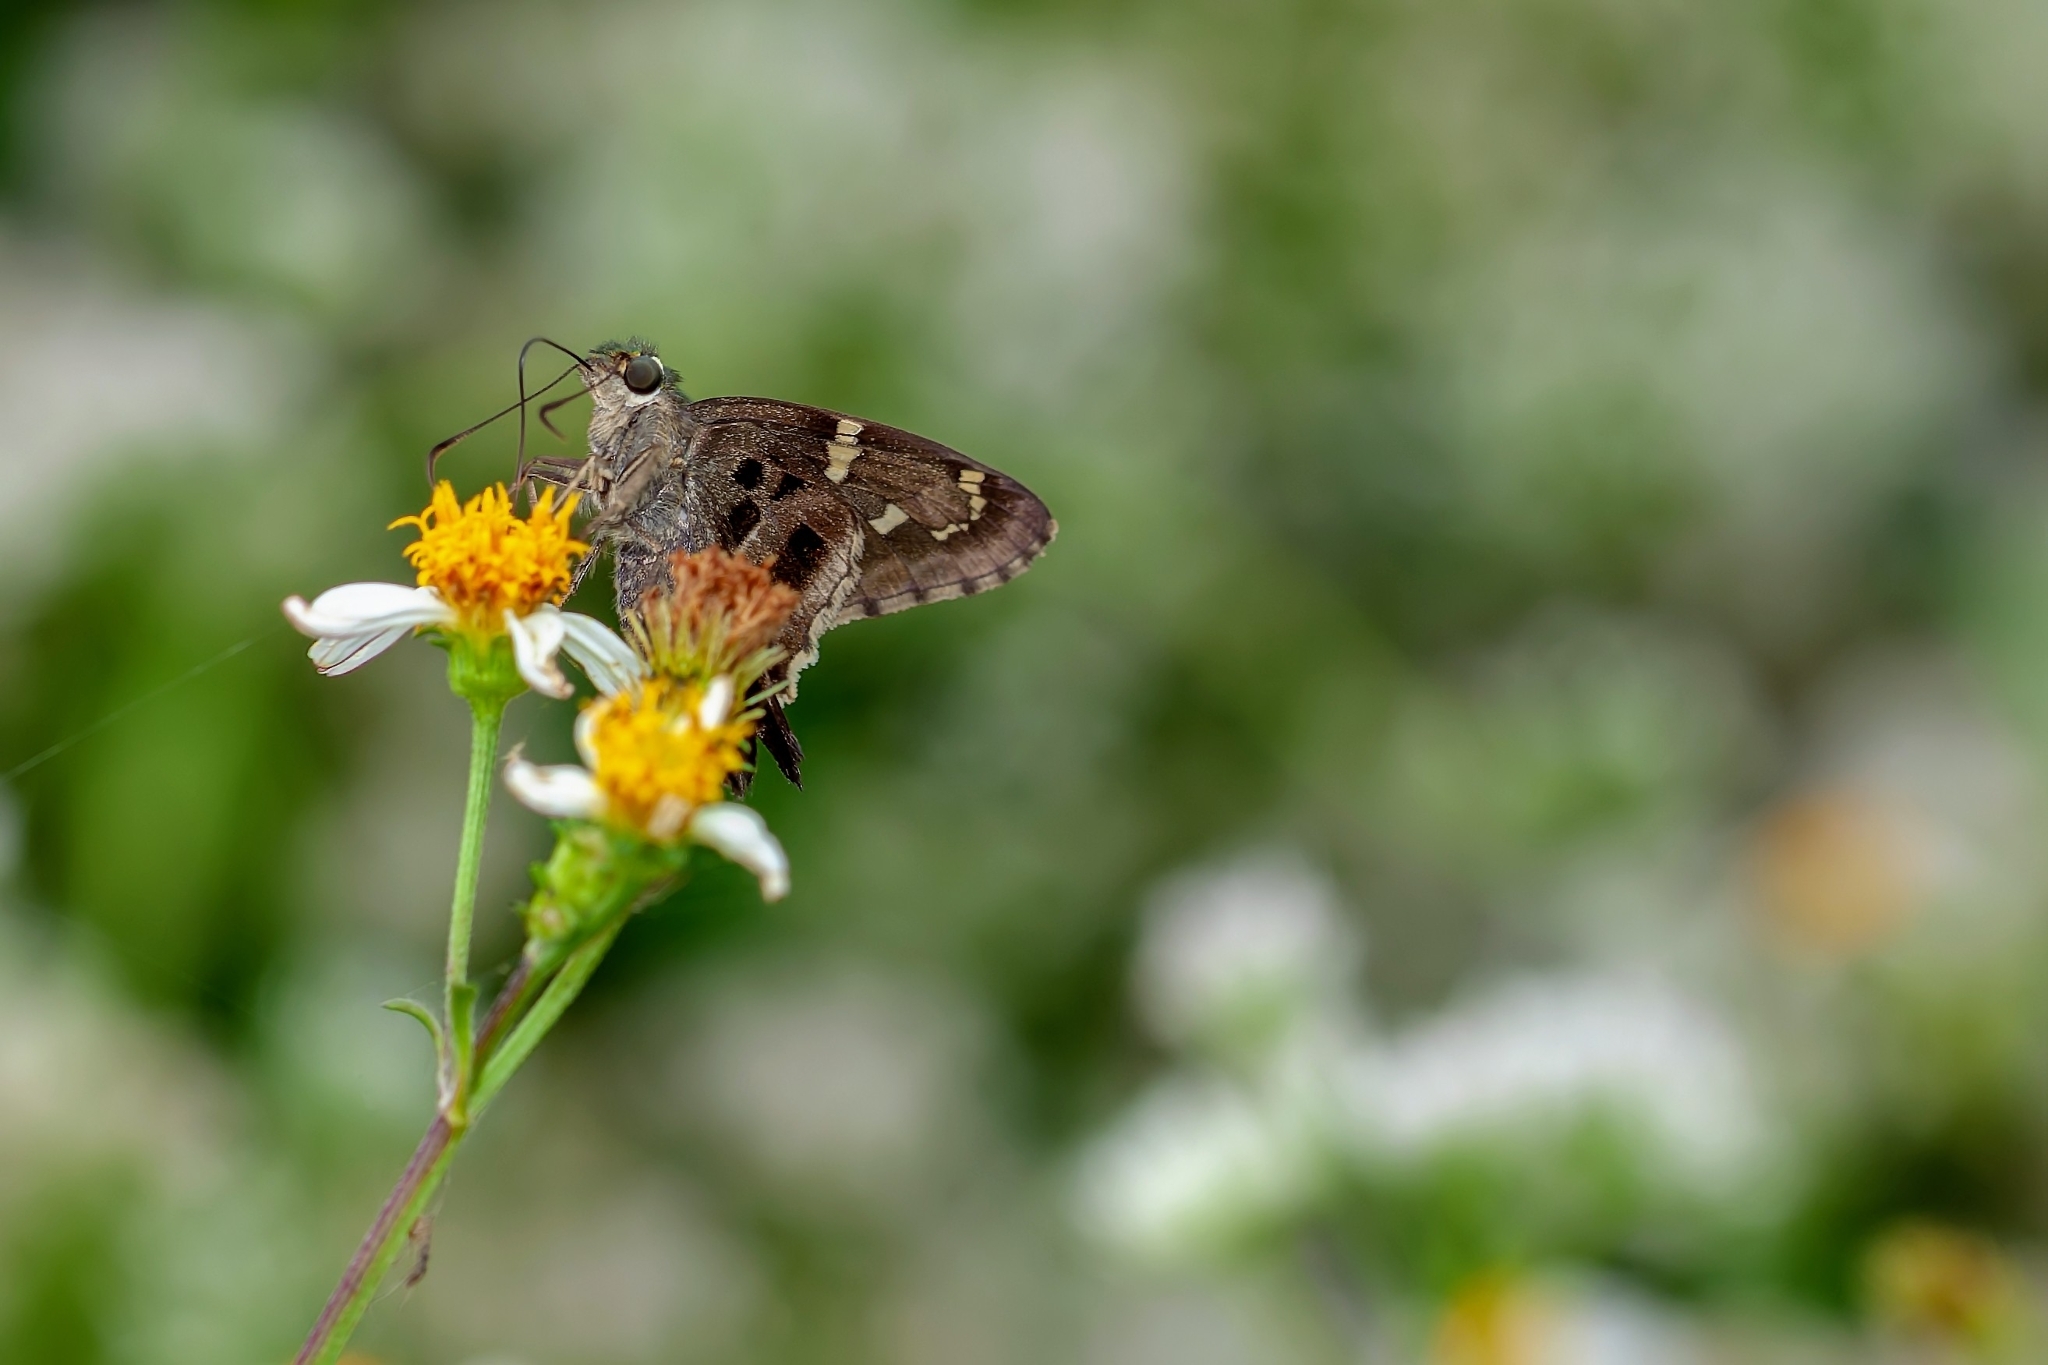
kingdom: Animalia
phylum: Arthropoda
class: Insecta
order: Lepidoptera
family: Hesperiidae
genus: Urbanus
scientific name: Urbanus proteus
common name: Long-tailed skipper
